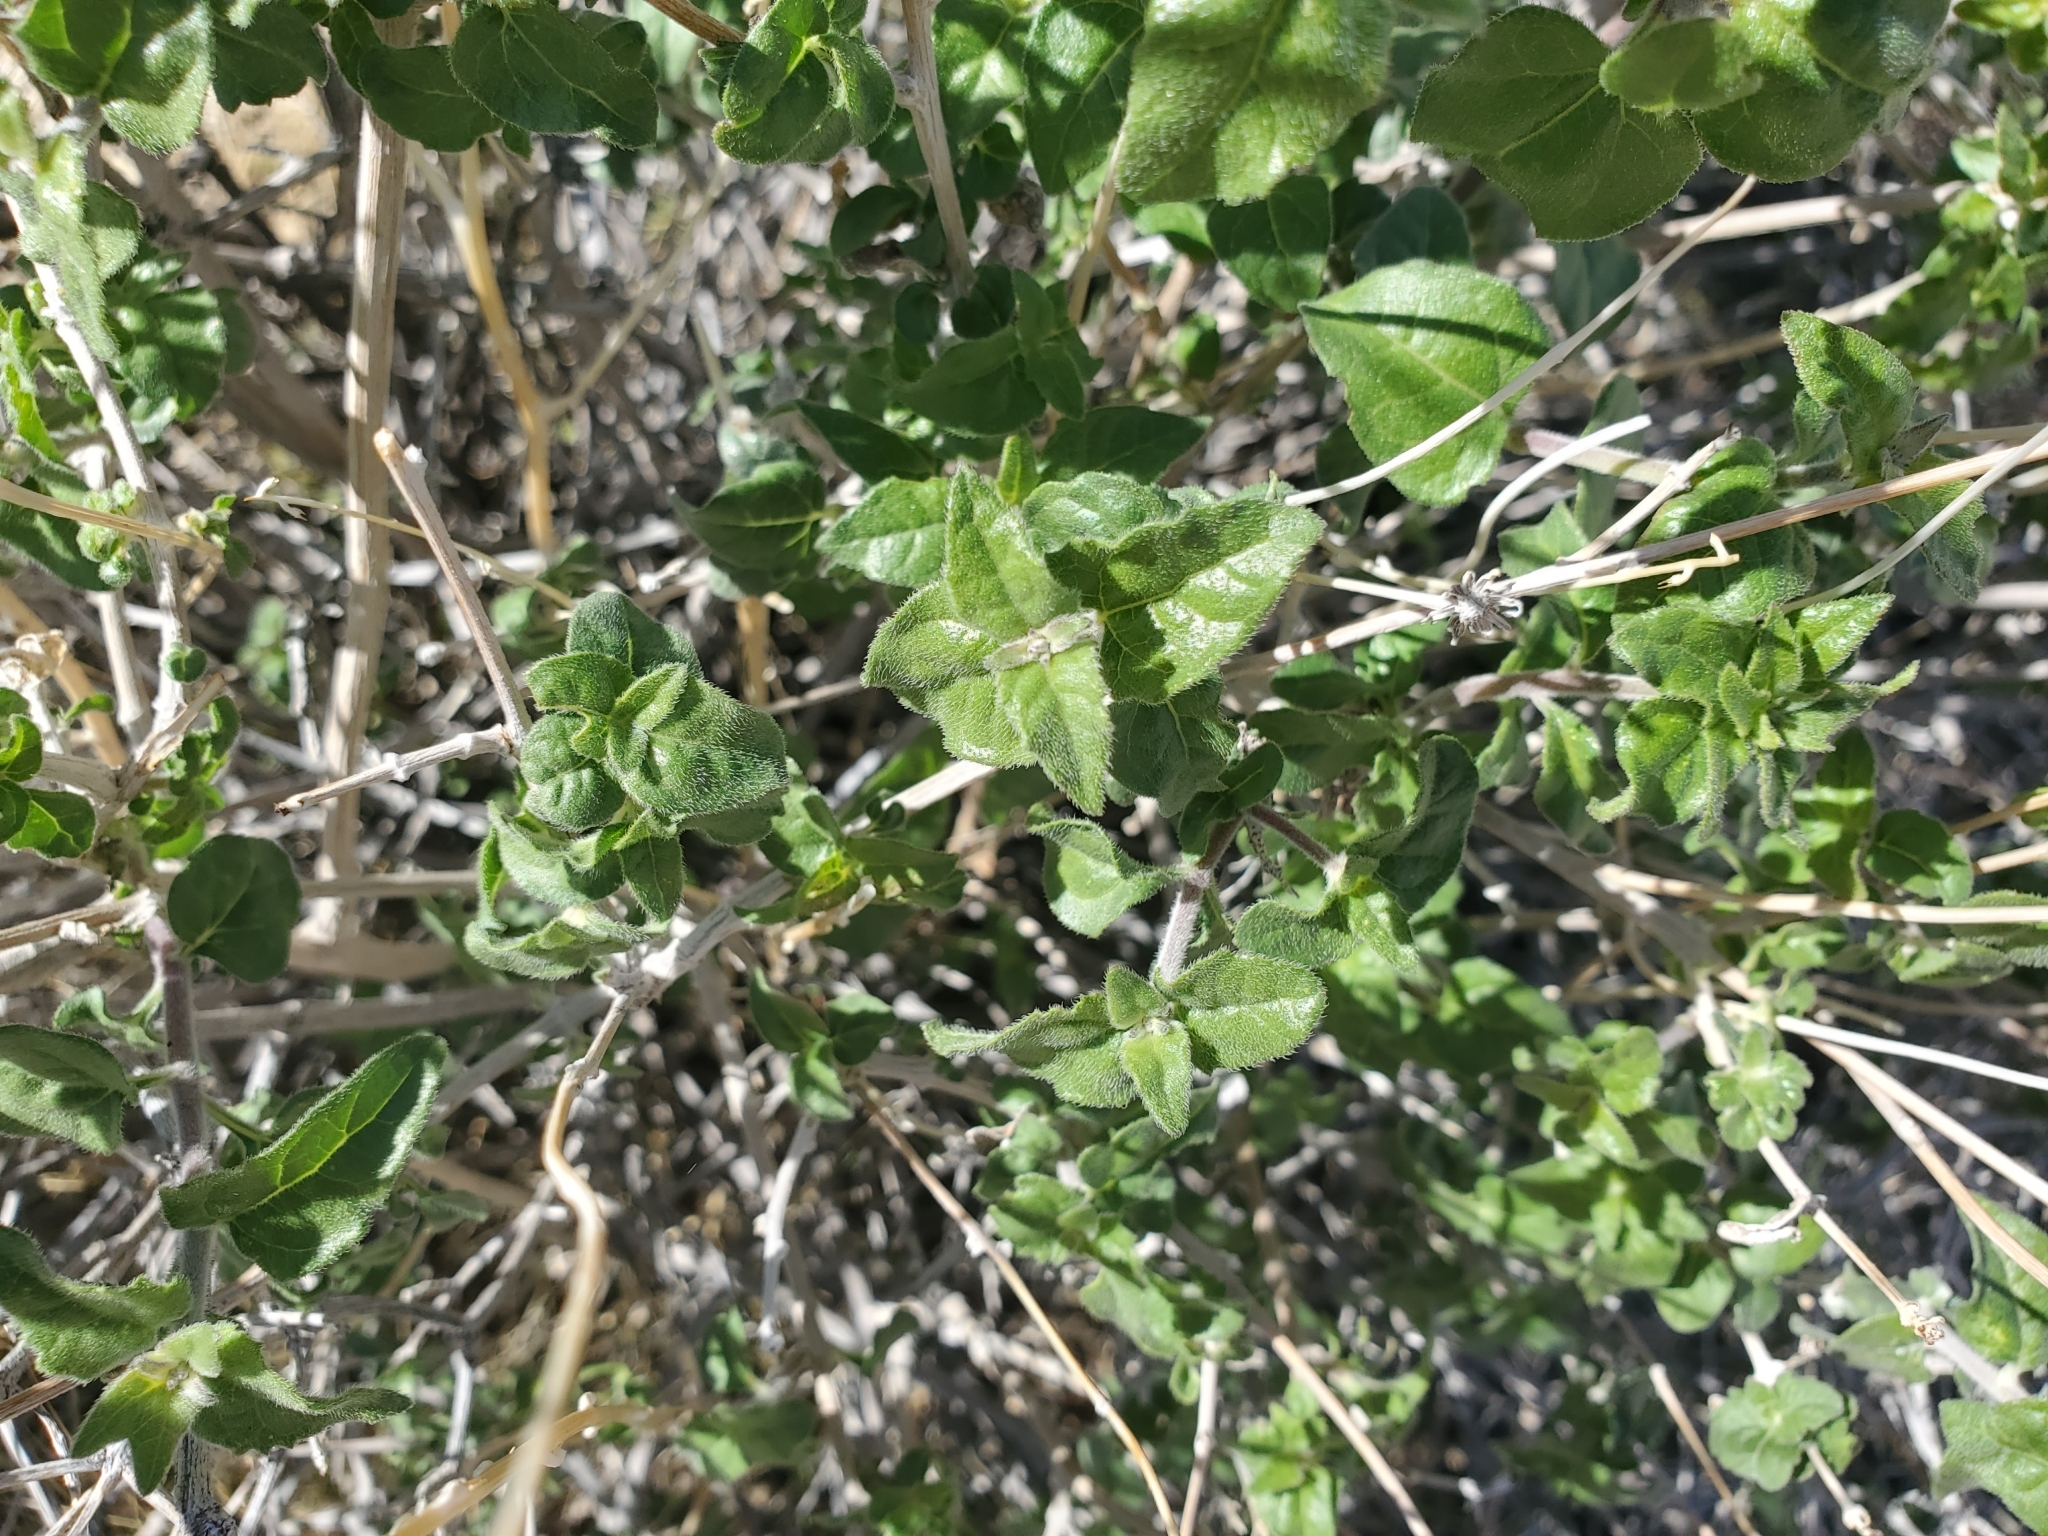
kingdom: Plantae
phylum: Tracheophyta
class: Magnoliopsida
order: Asterales
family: Asteraceae
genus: Bahiopsis
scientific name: Bahiopsis parishii
